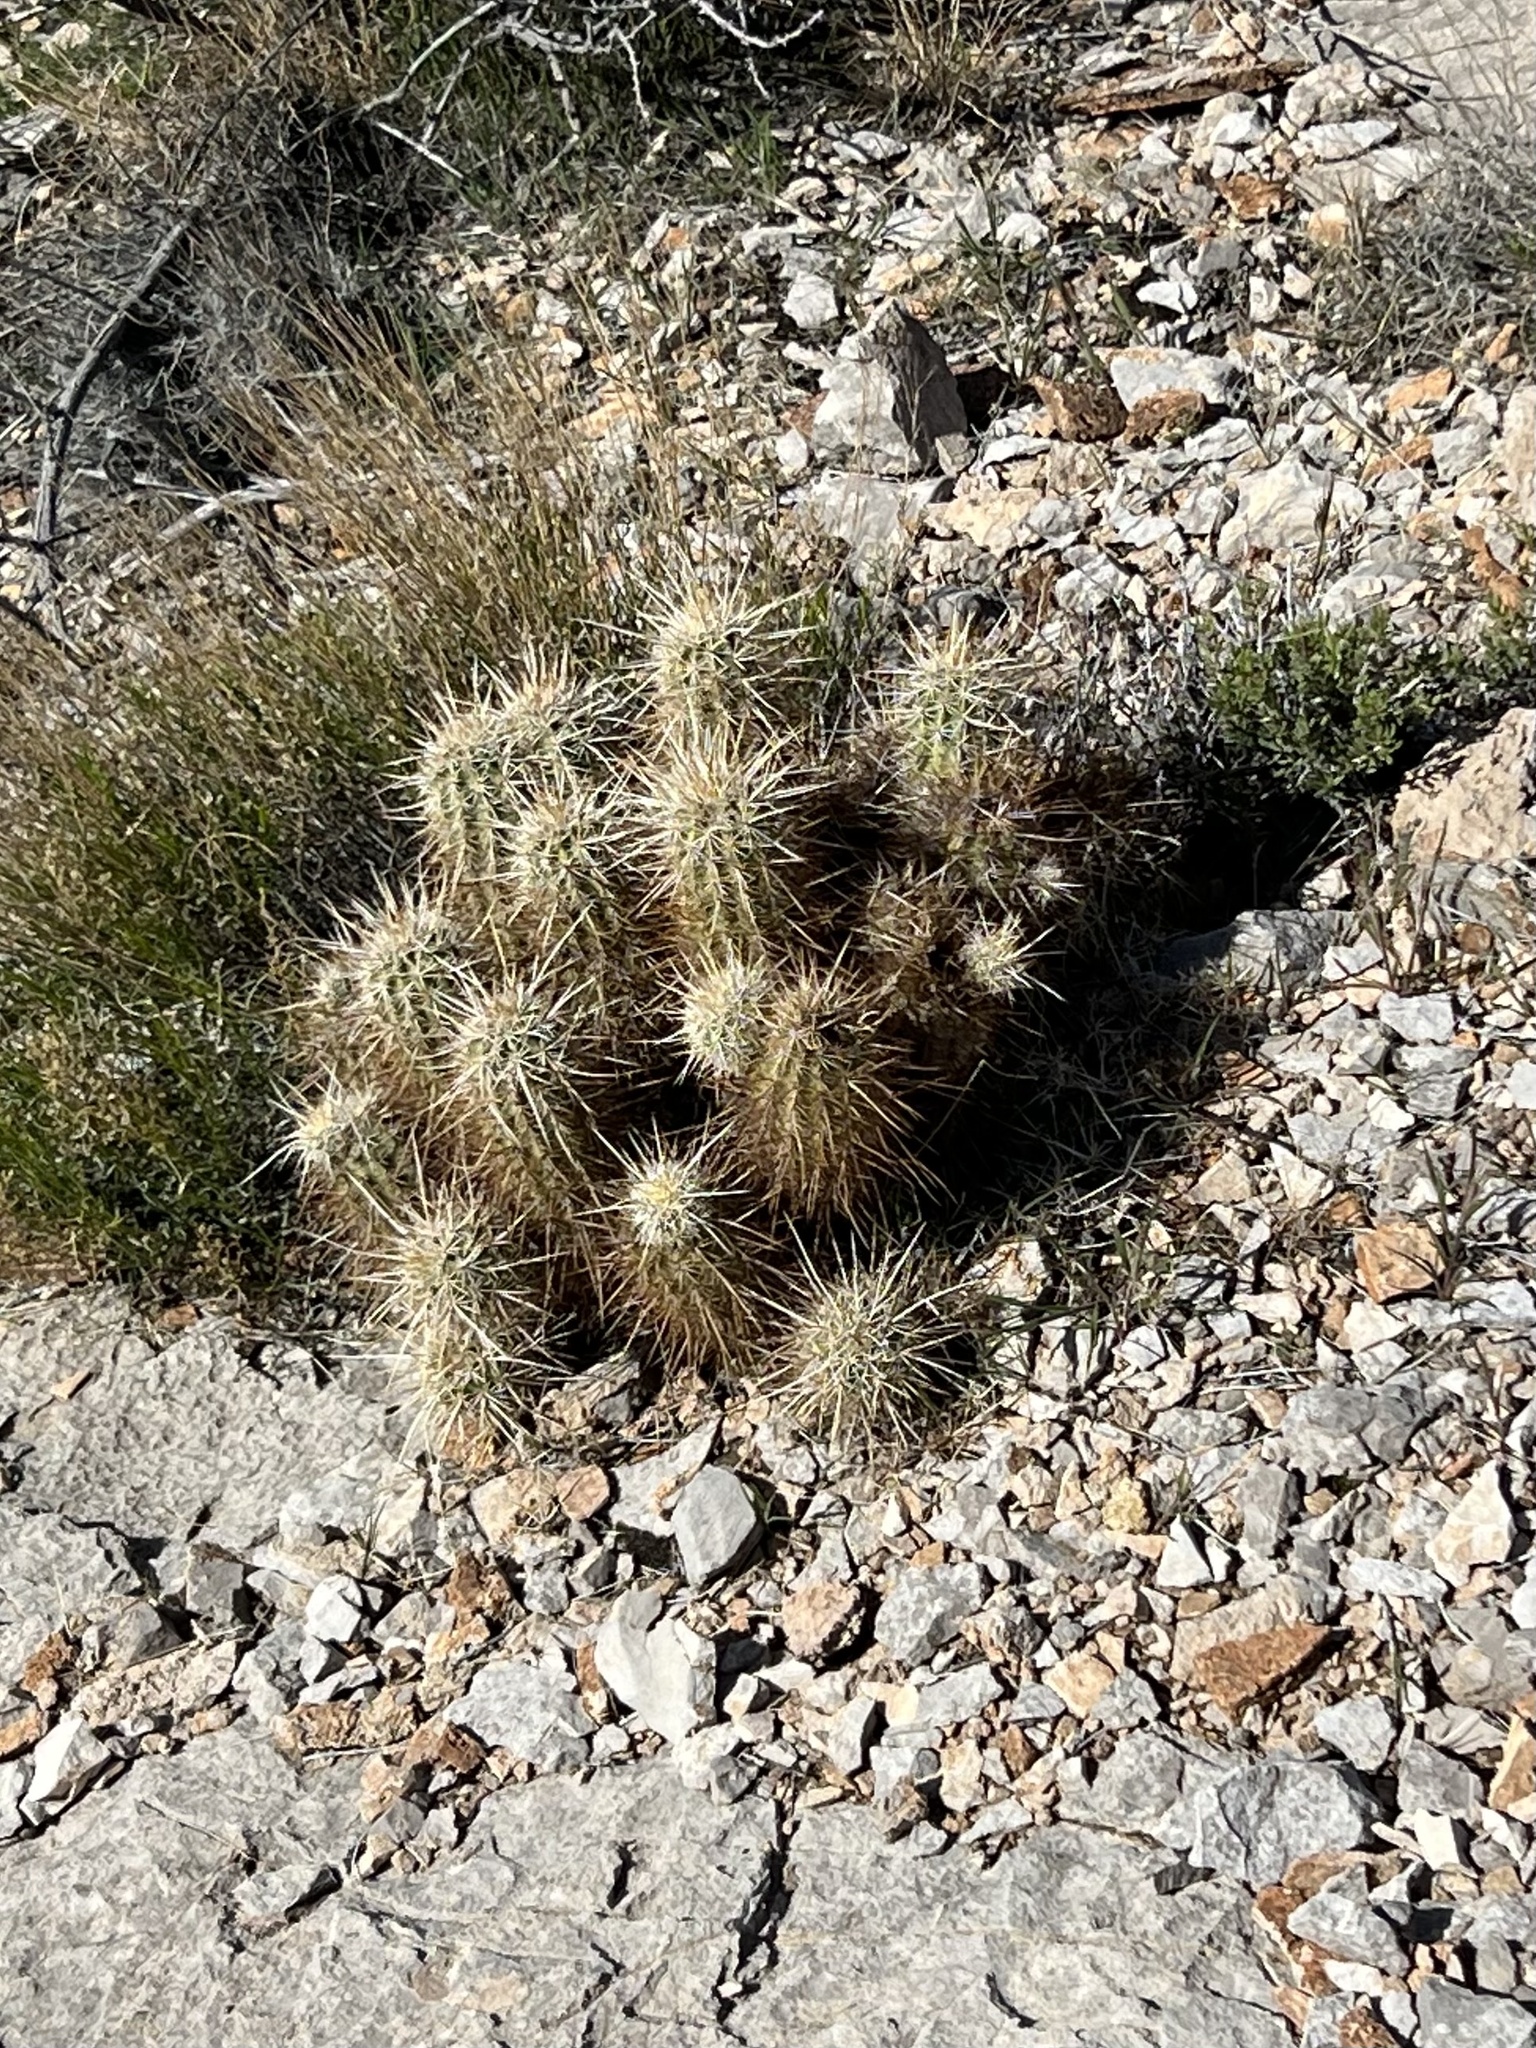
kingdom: Plantae
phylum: Tracheophyta
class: Magnoliopsida
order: Caryophyllales
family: Cactaceae
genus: Echinocereus
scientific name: Echinocereus engelmannii
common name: Engelmann's hedgehog cactus
